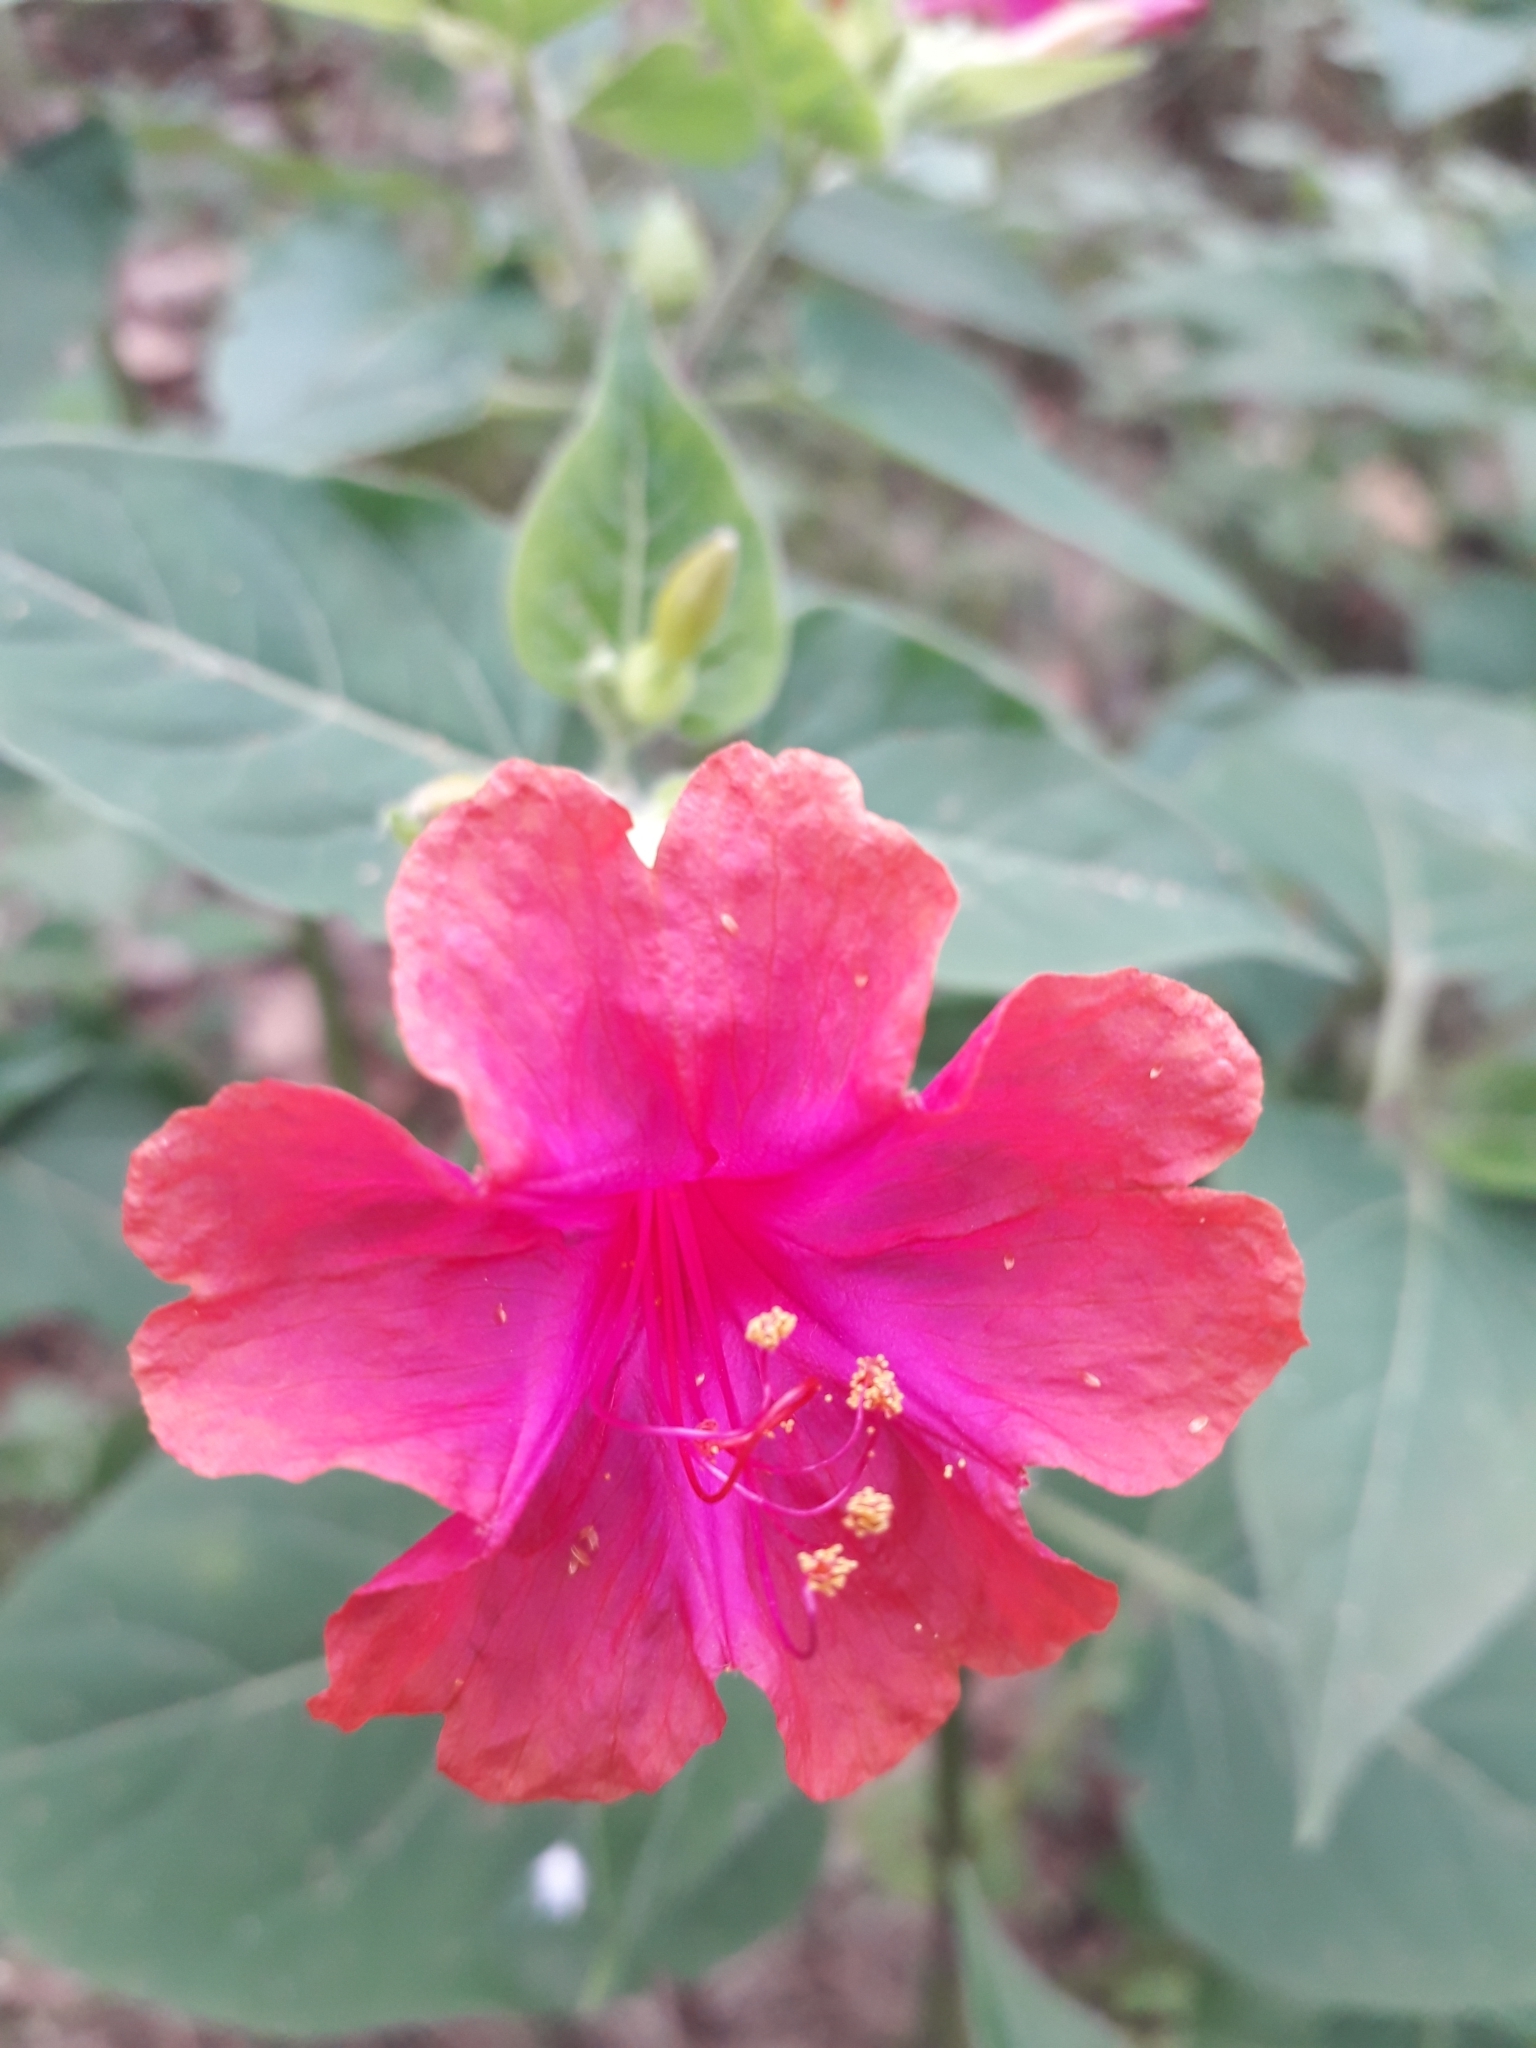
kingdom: Plantae
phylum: Tracheophyta
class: Magnoliopsida
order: Caryophyllales
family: Nyctaginaceae
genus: Mirabilis
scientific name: Mirabilis jalapa
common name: Marvel-of-peru
